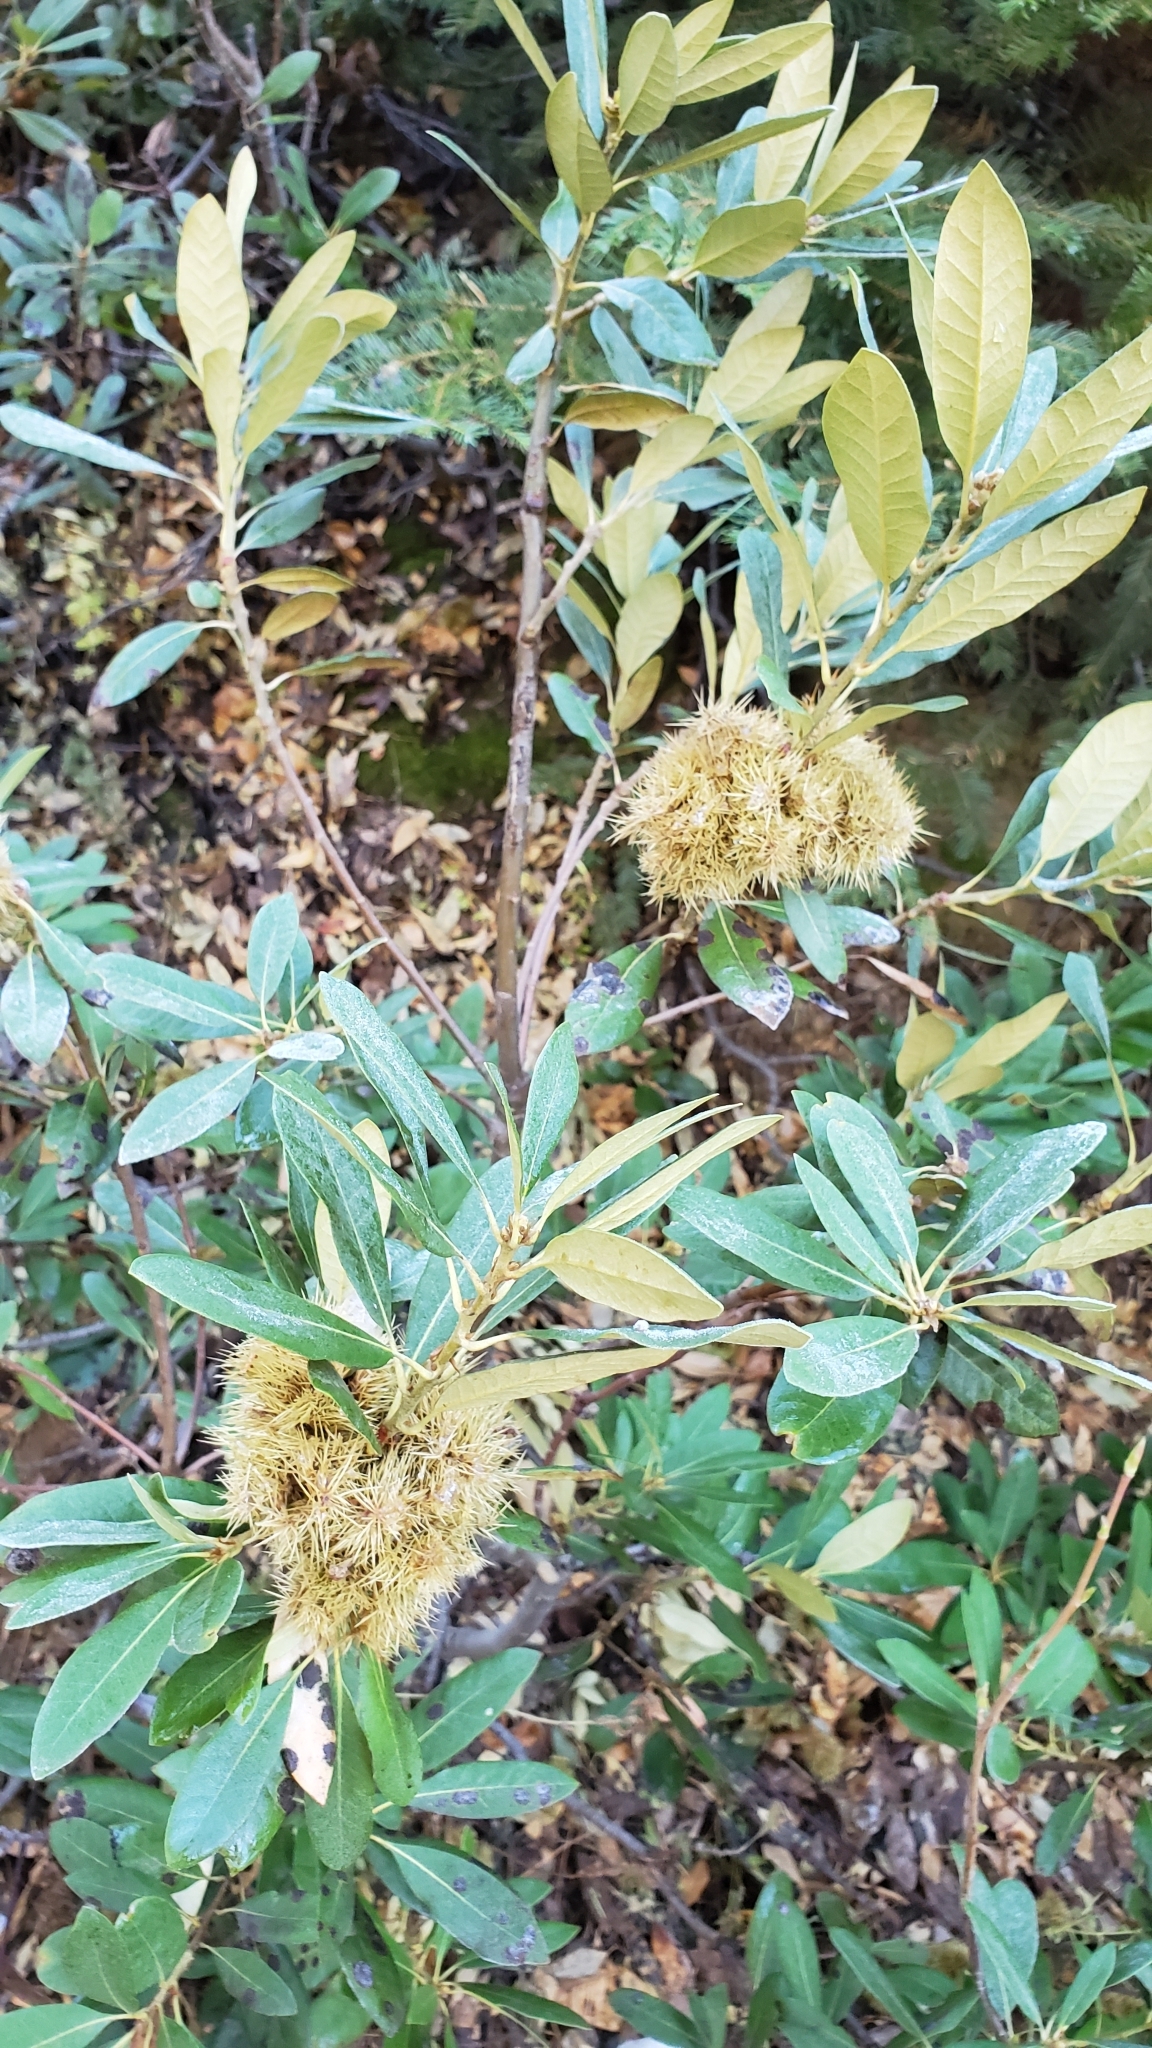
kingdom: Plantae
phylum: Tracheophyta
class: Magnoliopsida
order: Fagales
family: Fagaceae
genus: Chrysolepis
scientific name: Chrysolepis sempervirens
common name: Bush chinquapin
